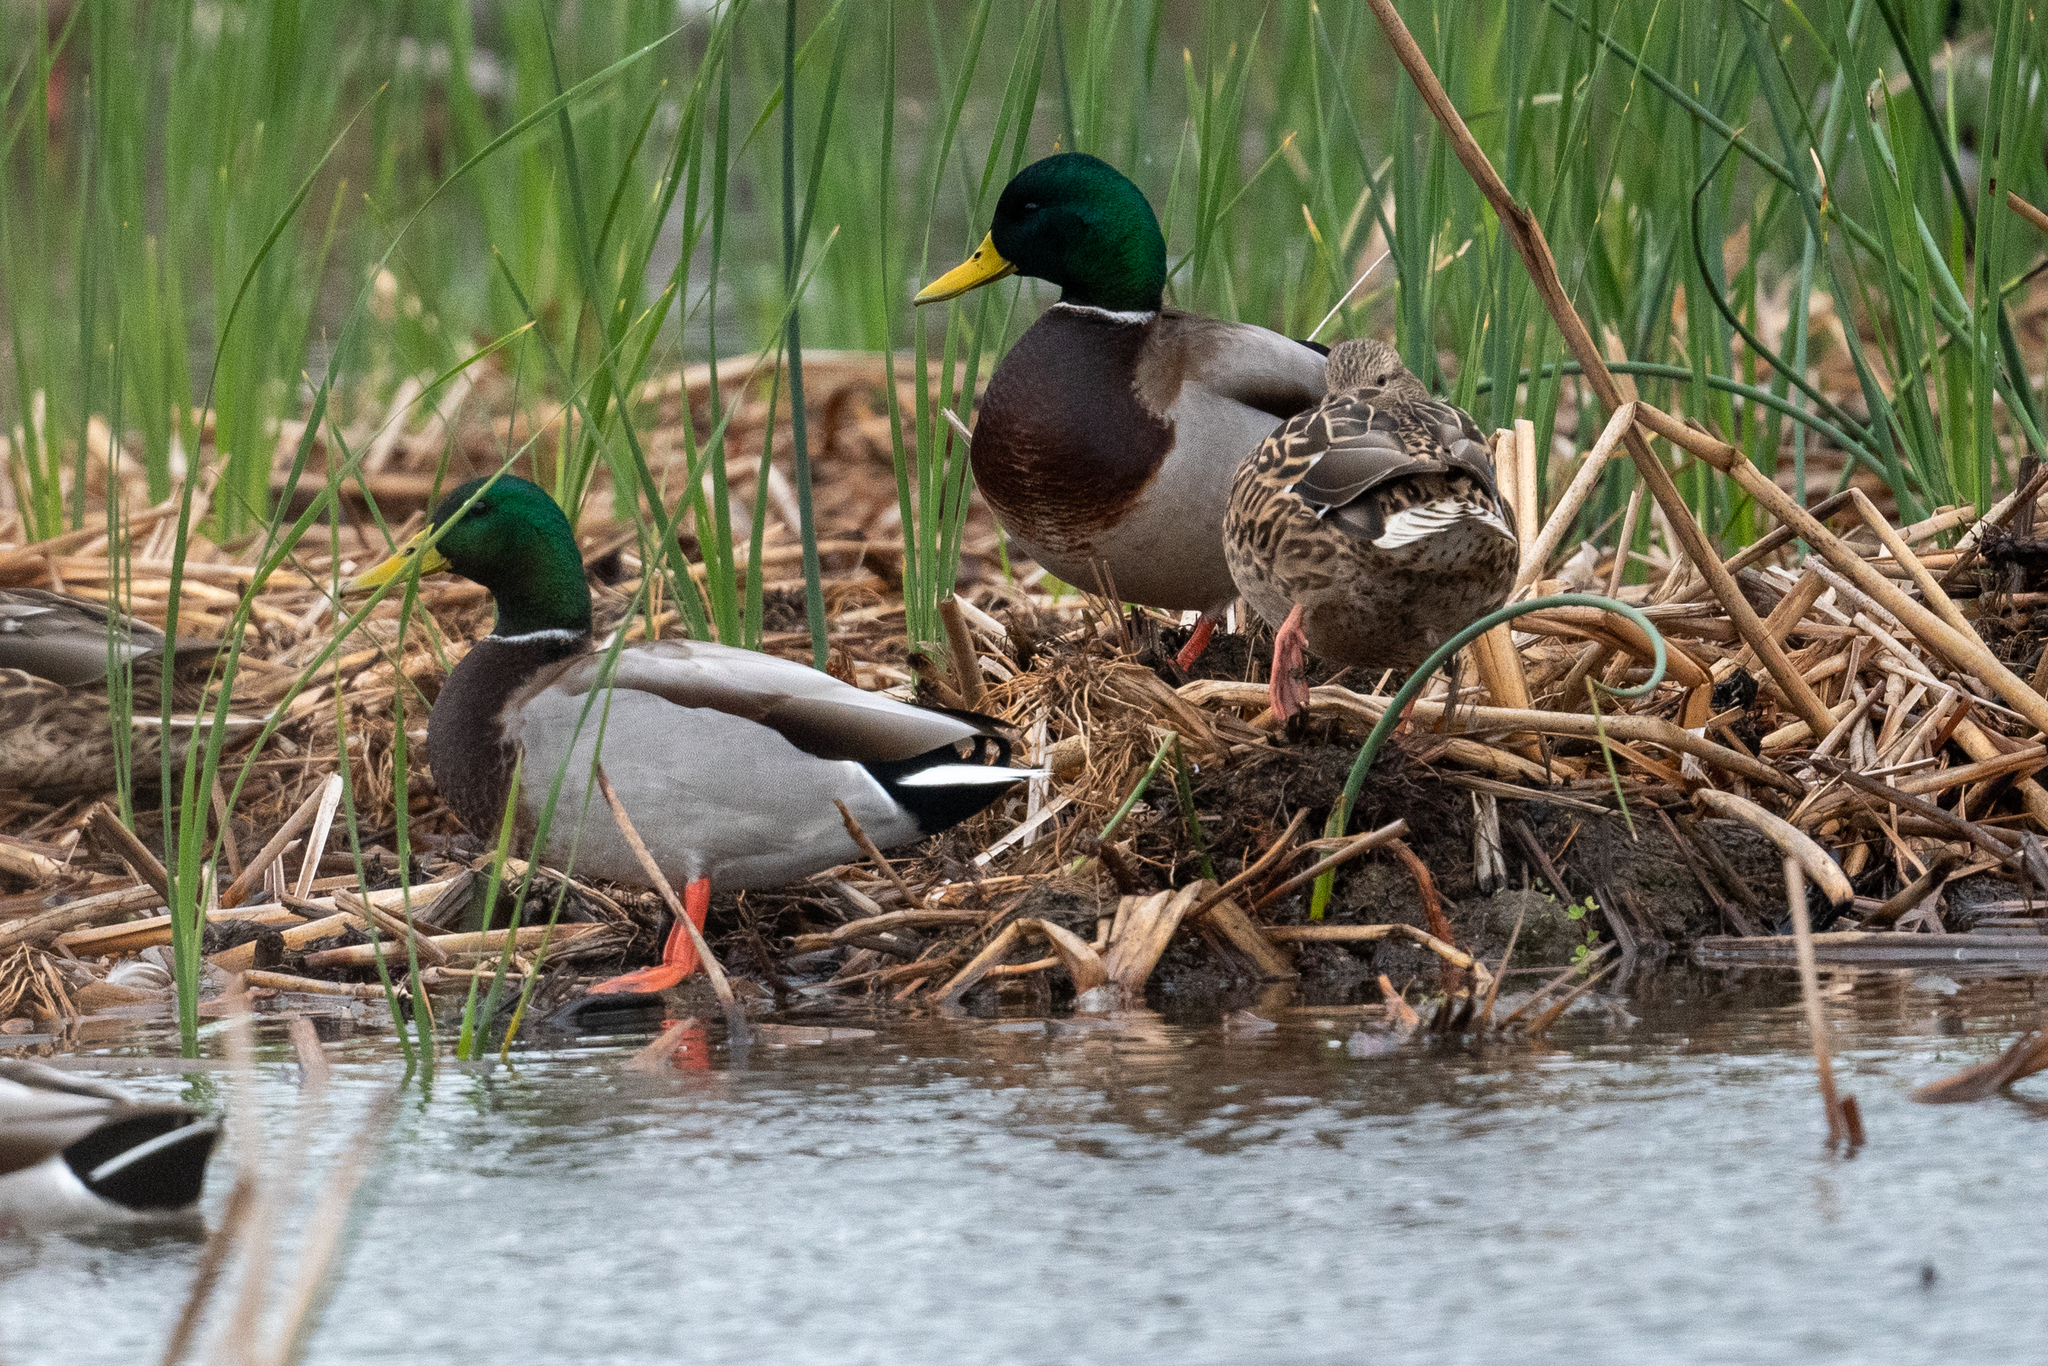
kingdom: Animalia
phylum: Chordata
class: Aves
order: Anseriformes
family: Anatidae
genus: Anas
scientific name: Anas platyrhynchos
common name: Mallard
